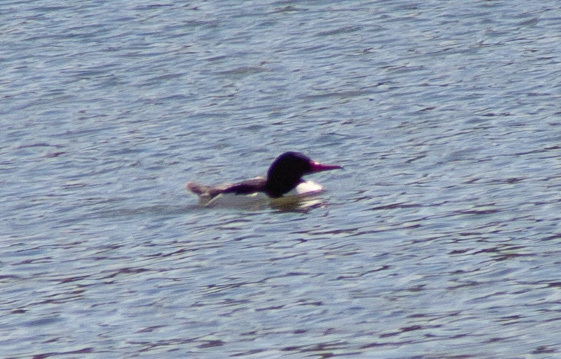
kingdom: Animalia
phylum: Chordata
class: Aves
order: Anseriformes
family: Anatidae
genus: Mergus
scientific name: Mergus merganser
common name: Common merganser
